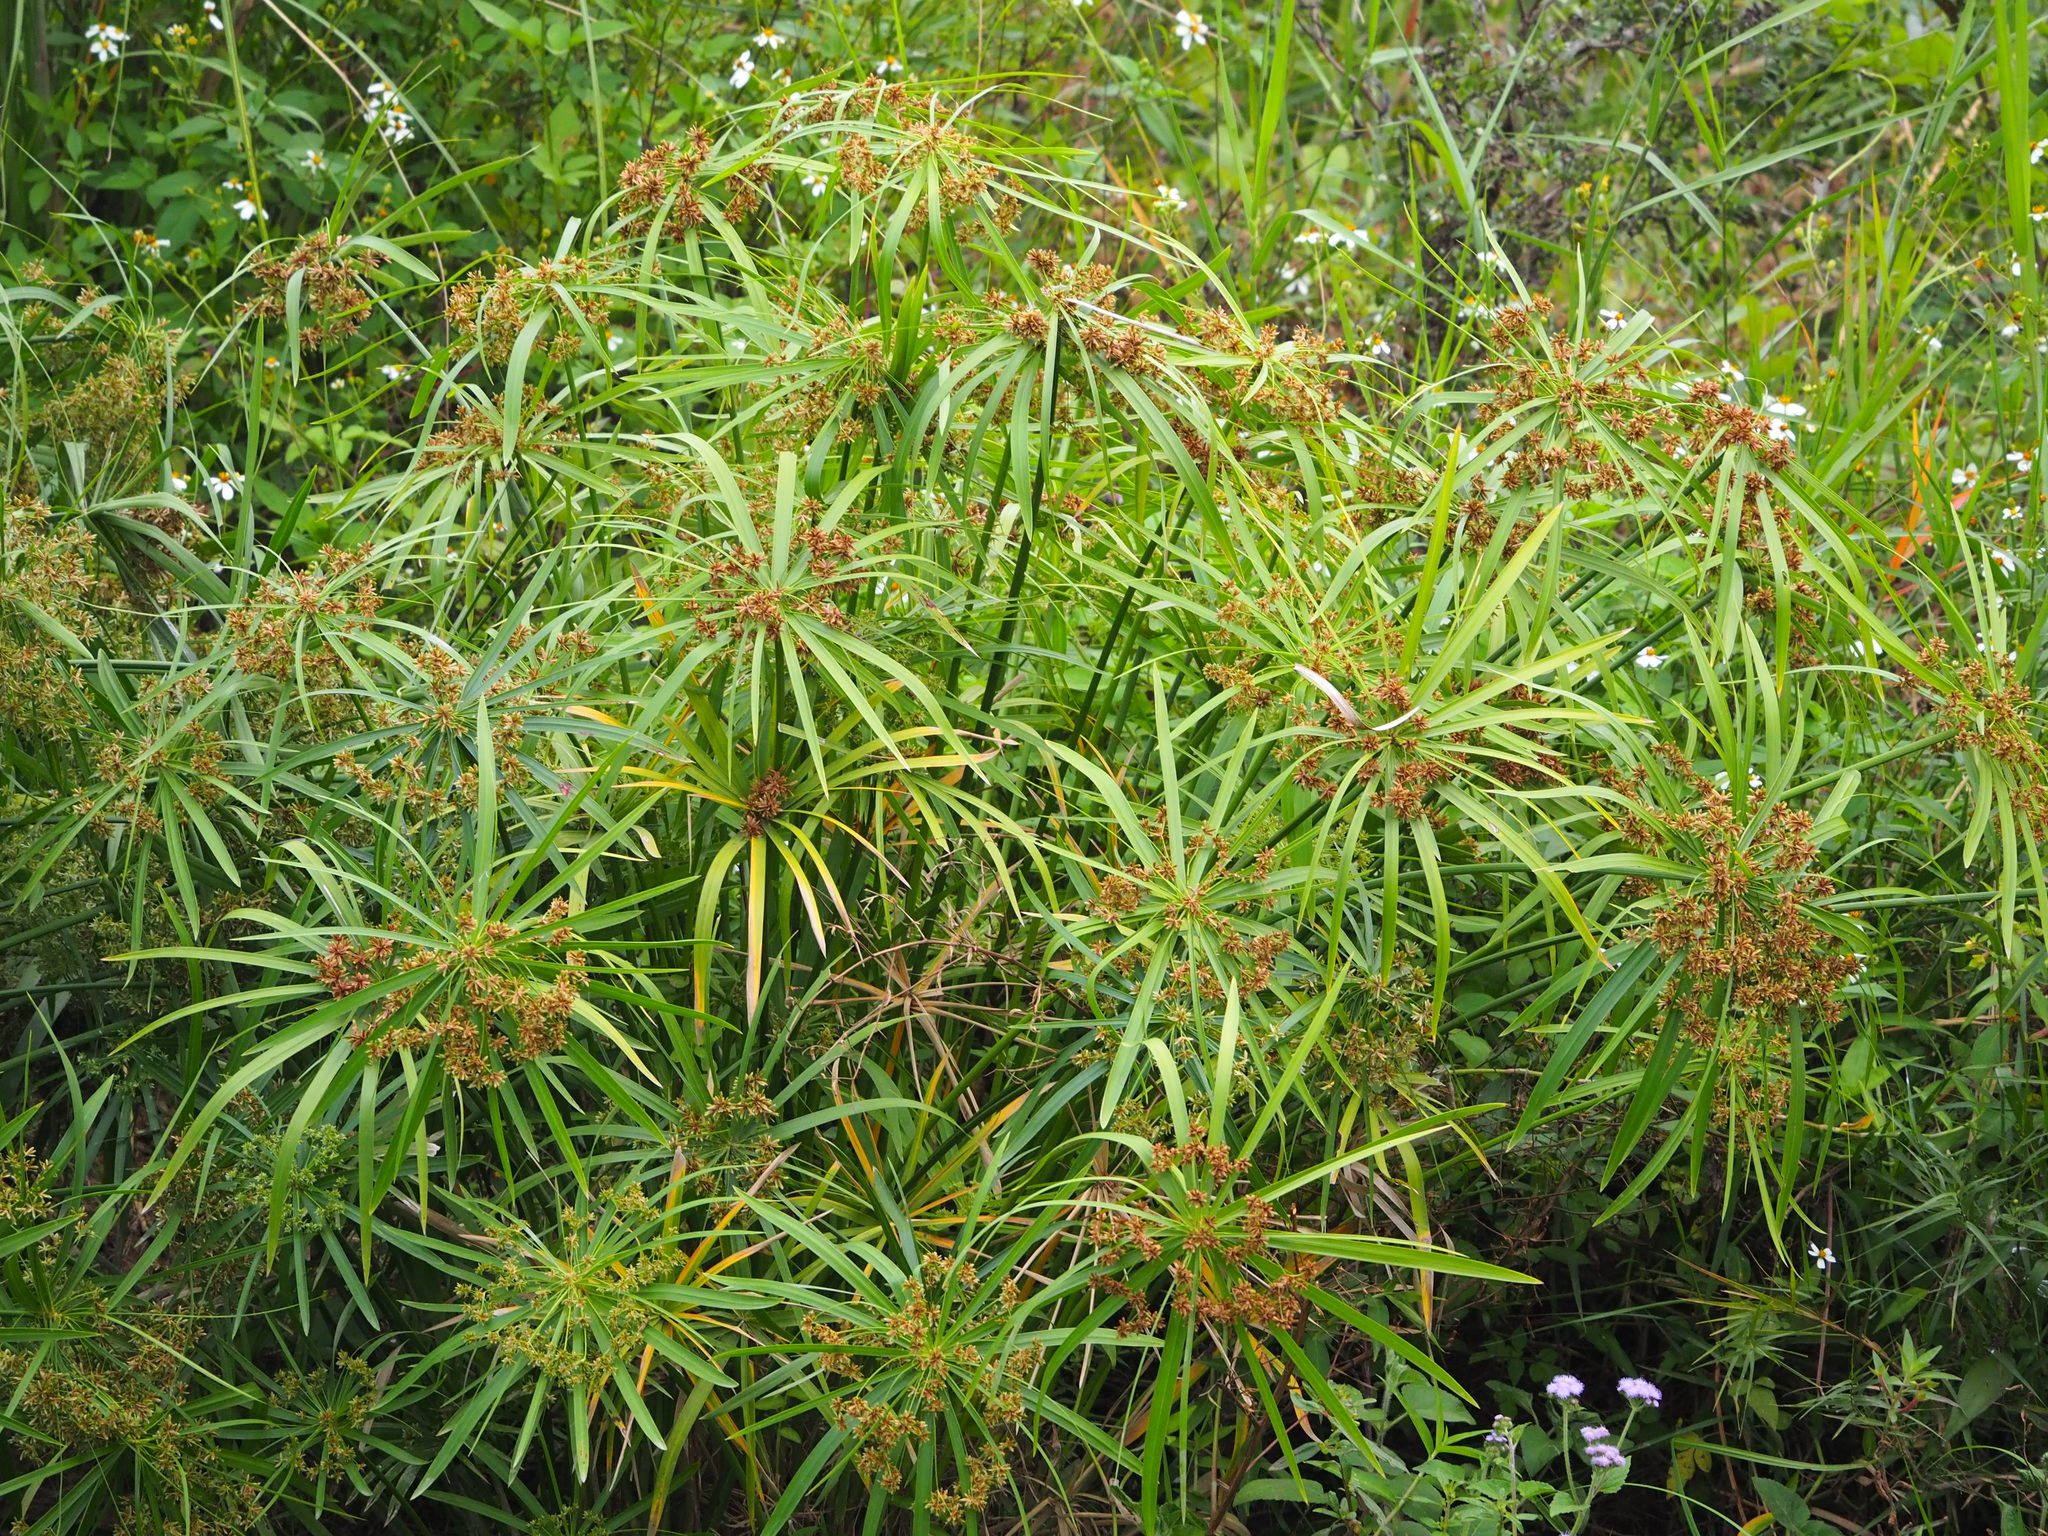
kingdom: Plantae
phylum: Tracheophyta
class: Liliopsida
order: Poales
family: Cyperaceae
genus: Cyperus
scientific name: Cyperus alternifolius
